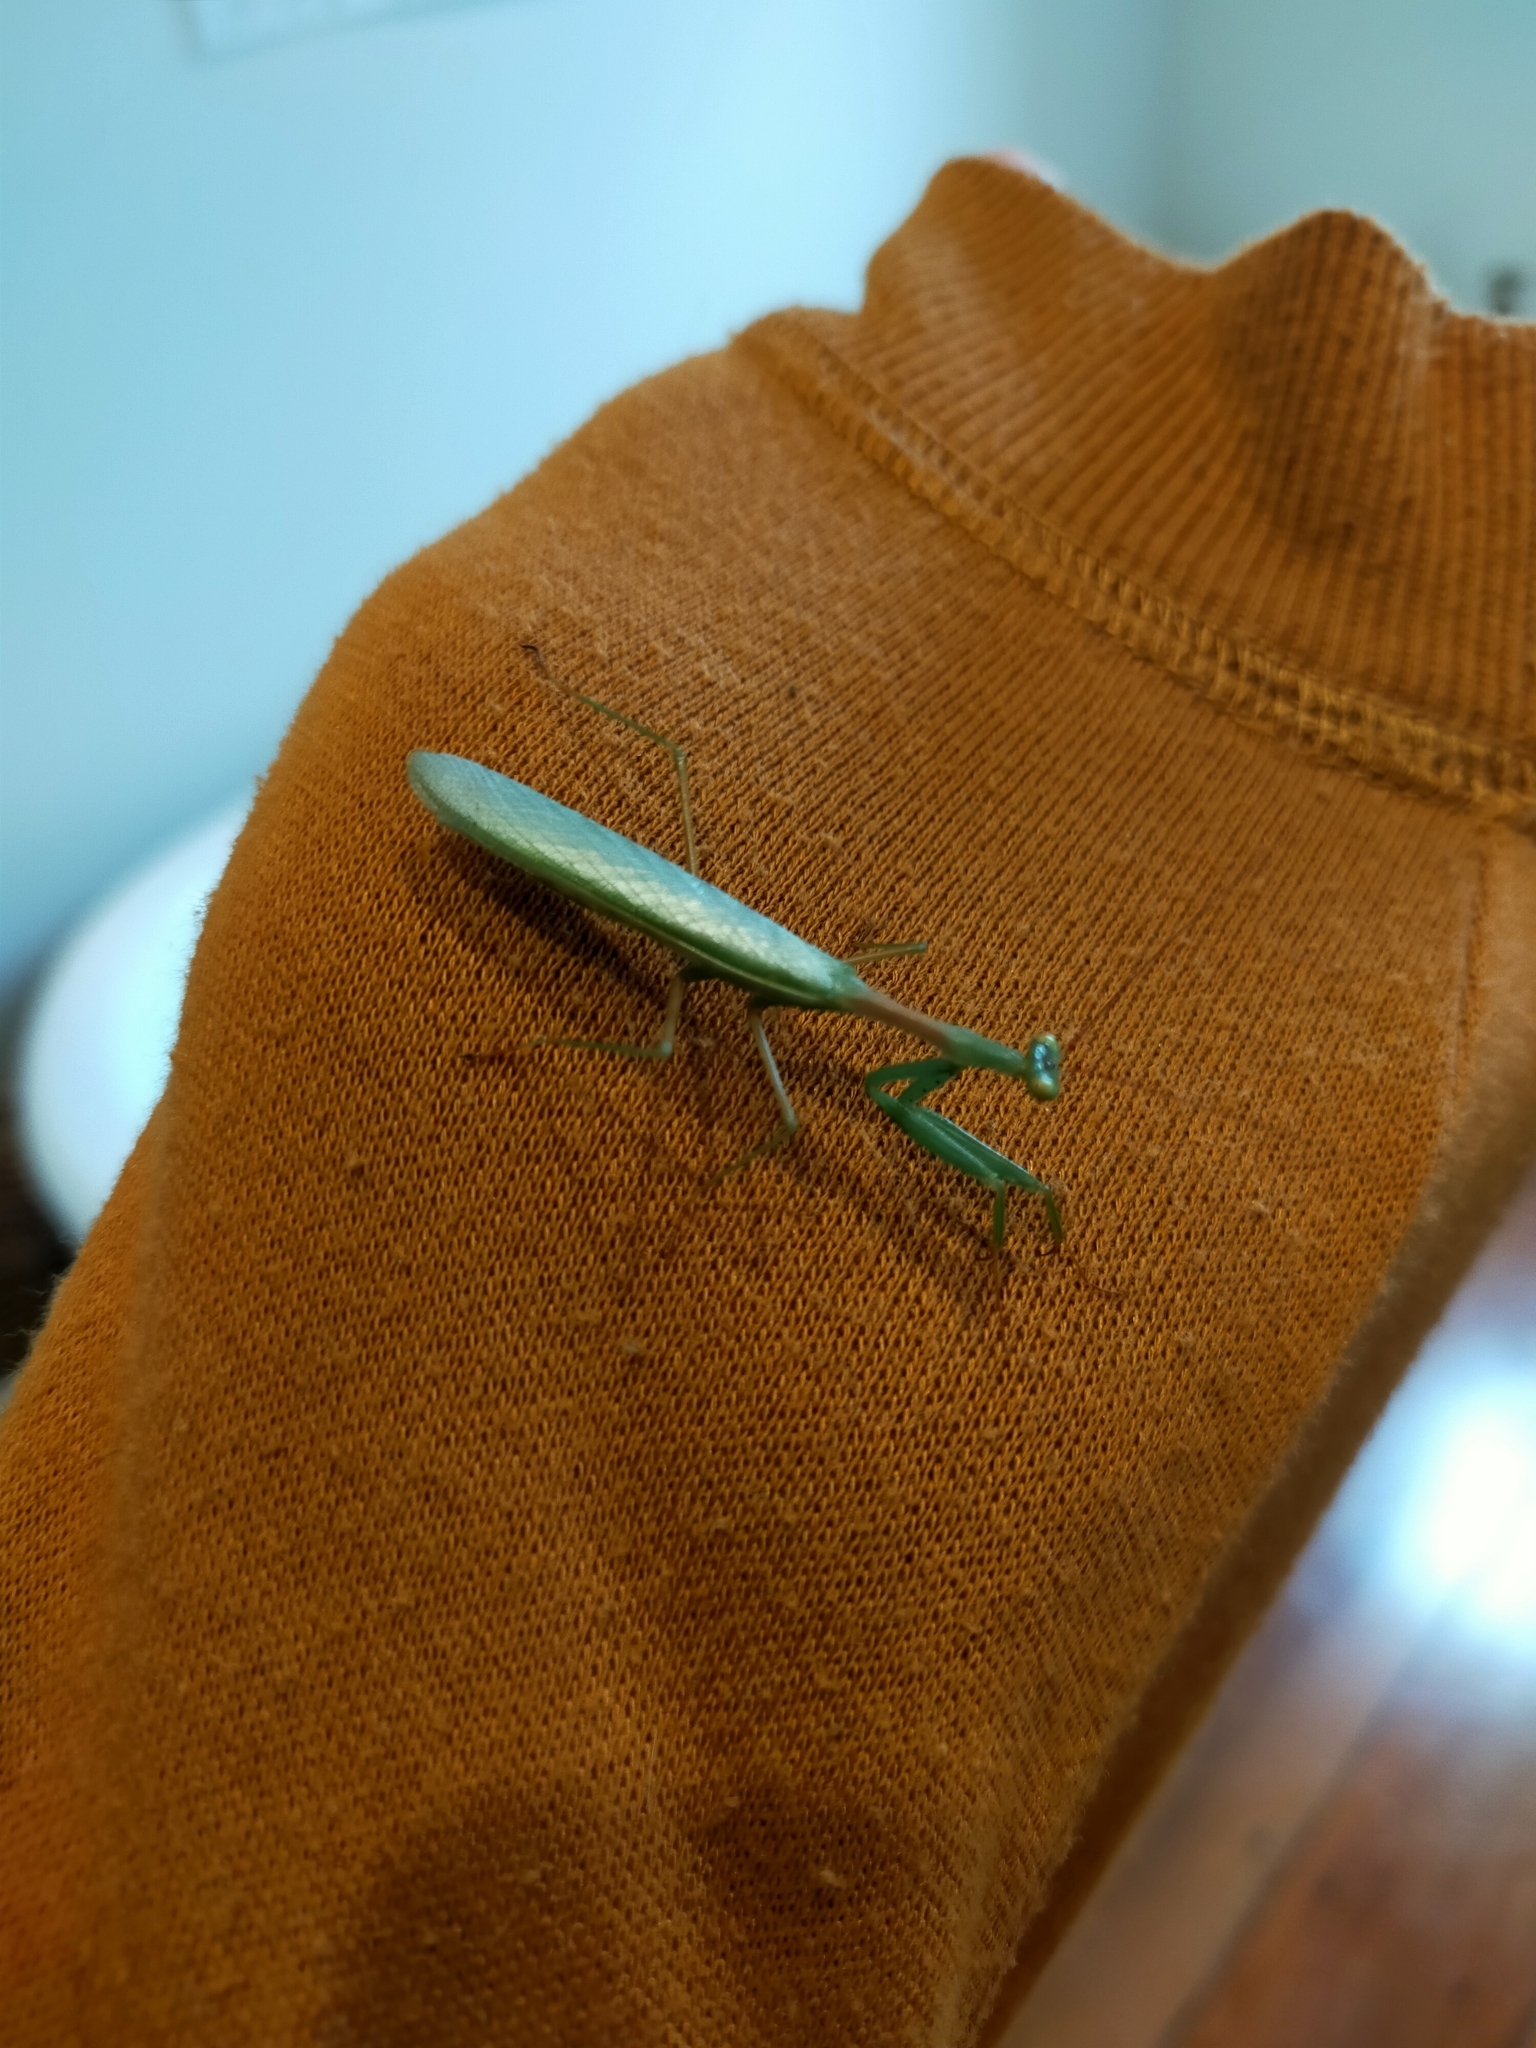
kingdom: Animalia
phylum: Arthropoda
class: Insecta
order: Mantodea
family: Miomantidae
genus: Miomantis
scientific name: Miomantis caffra
